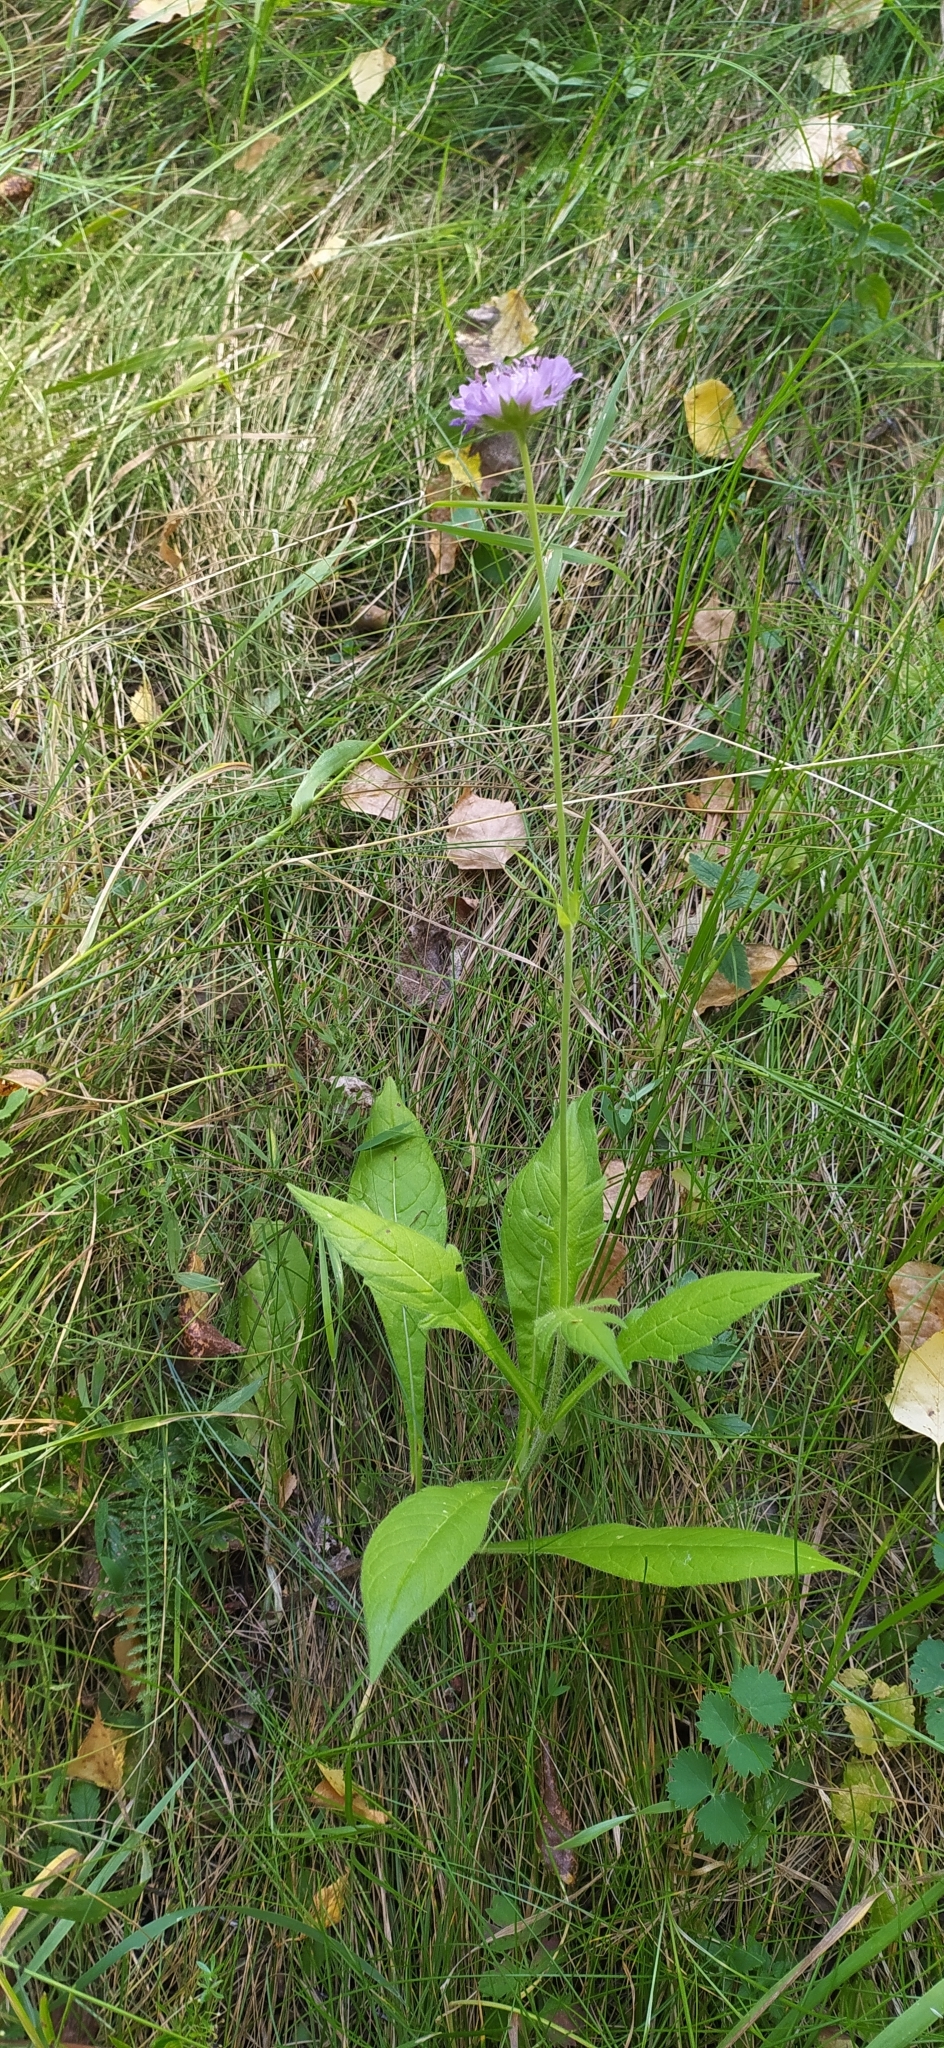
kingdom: Plantae
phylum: Tracheophyta
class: Magnoliopsida
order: Dipsacales
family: Caprifoliaceae
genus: Knautia
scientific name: Knautia arvensis
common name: Field scabiosa
